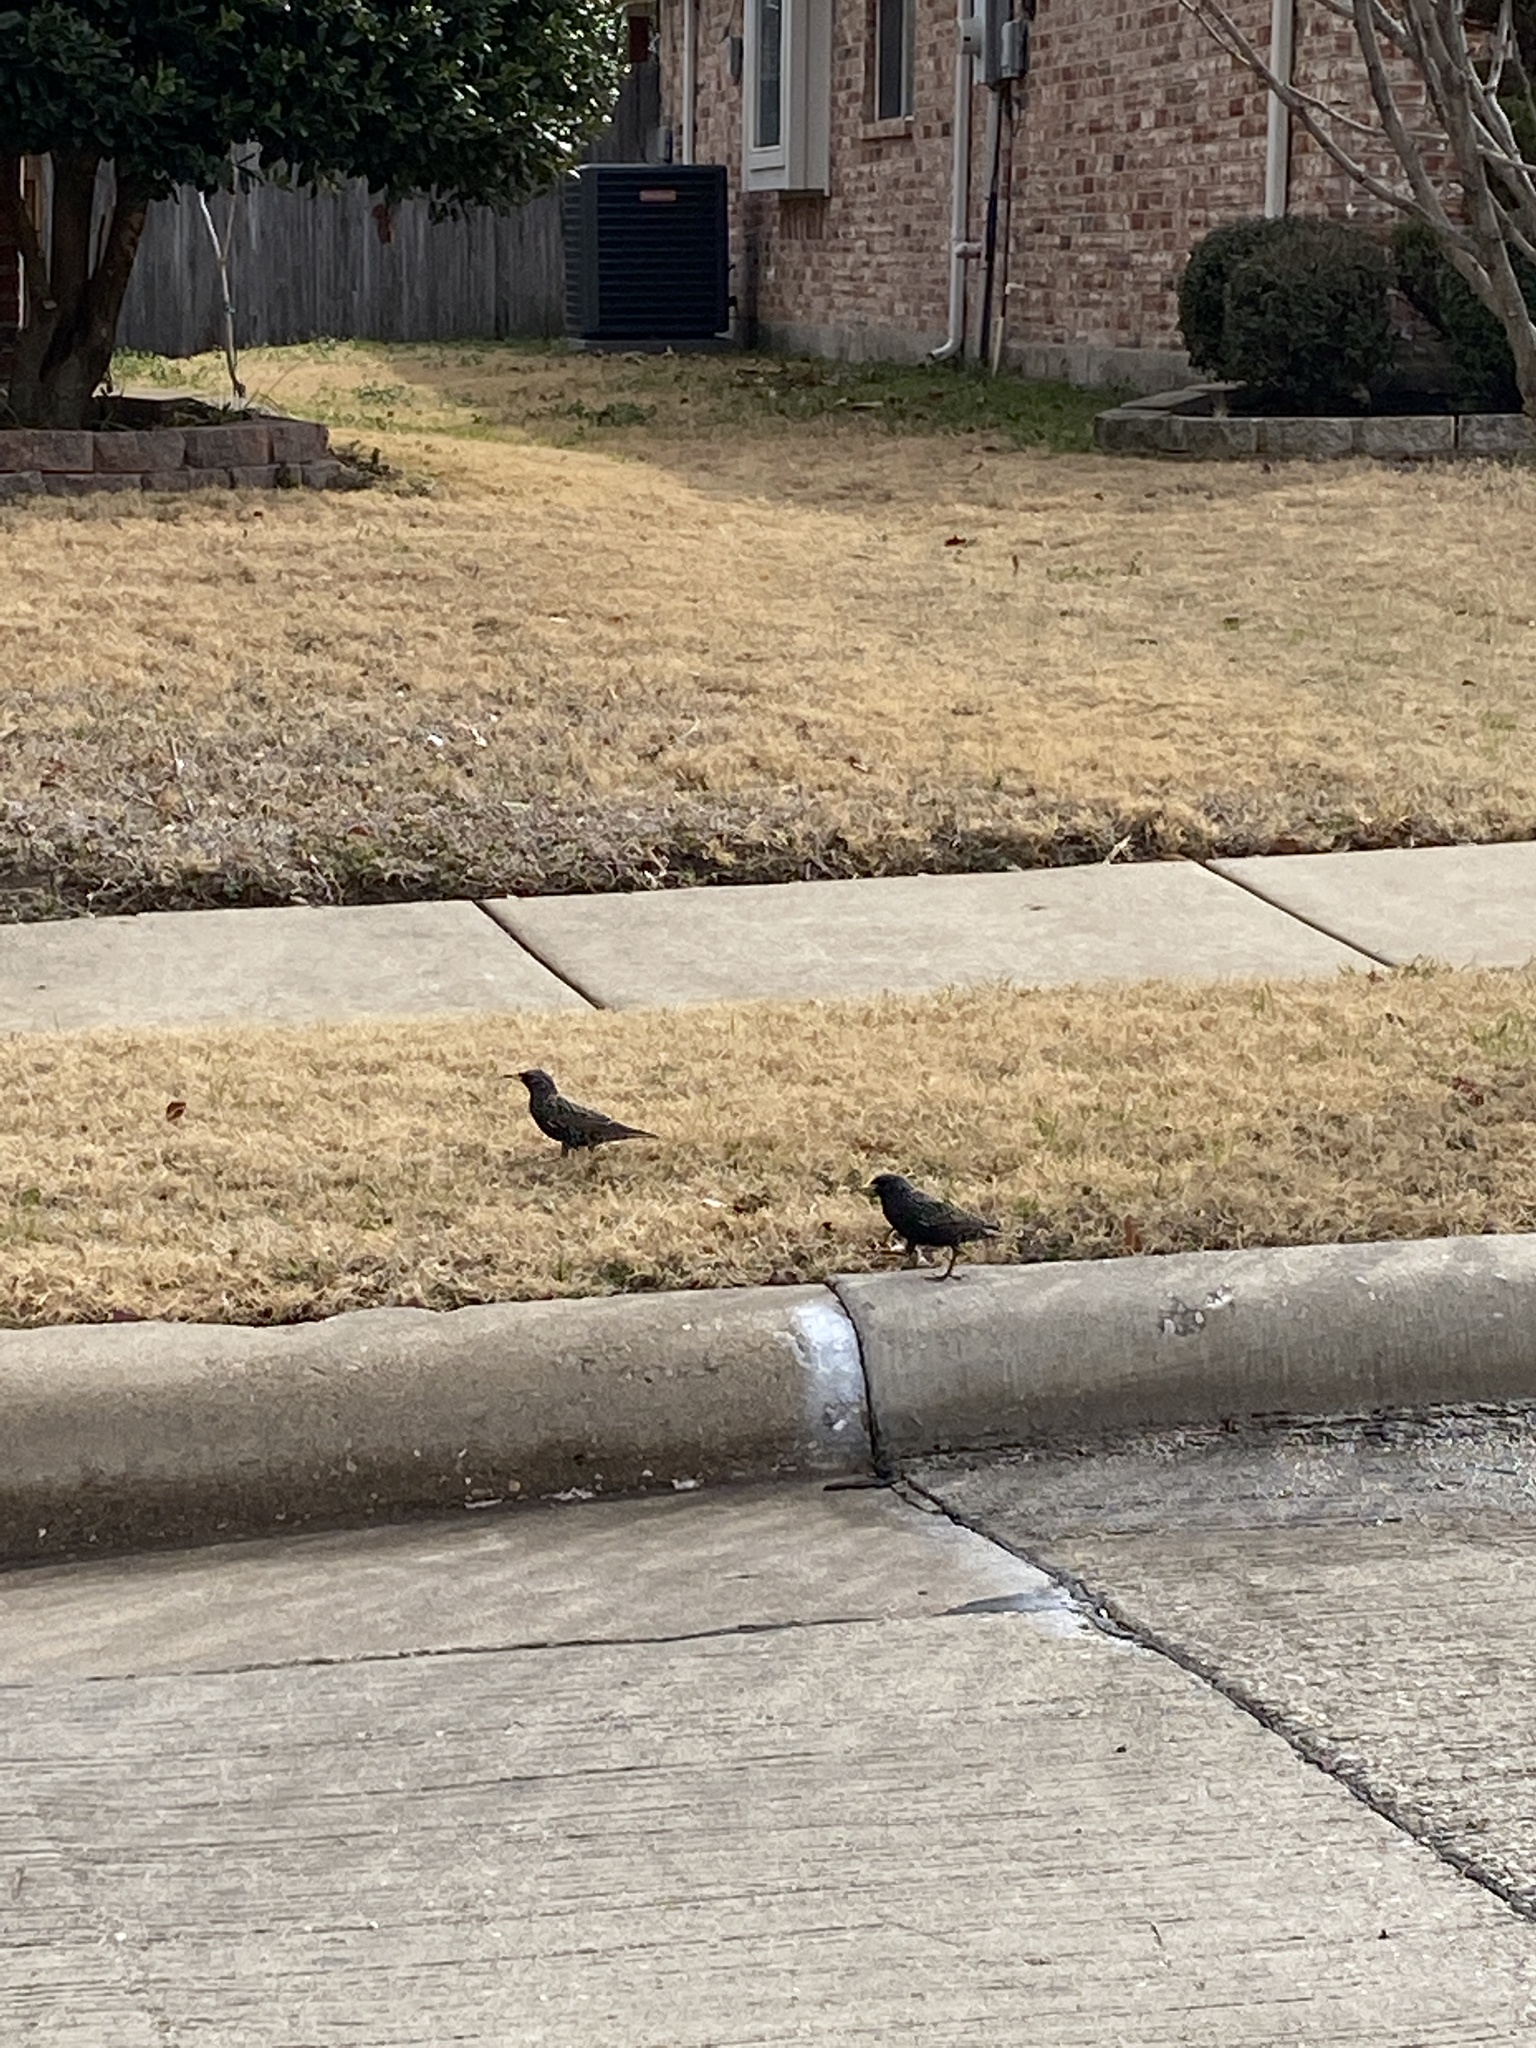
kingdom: Animalia
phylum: Chordata
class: Aves
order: Passeriformes
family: Sturnidae
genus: Sturnus
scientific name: Sturnus vulgaris
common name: Common starling
